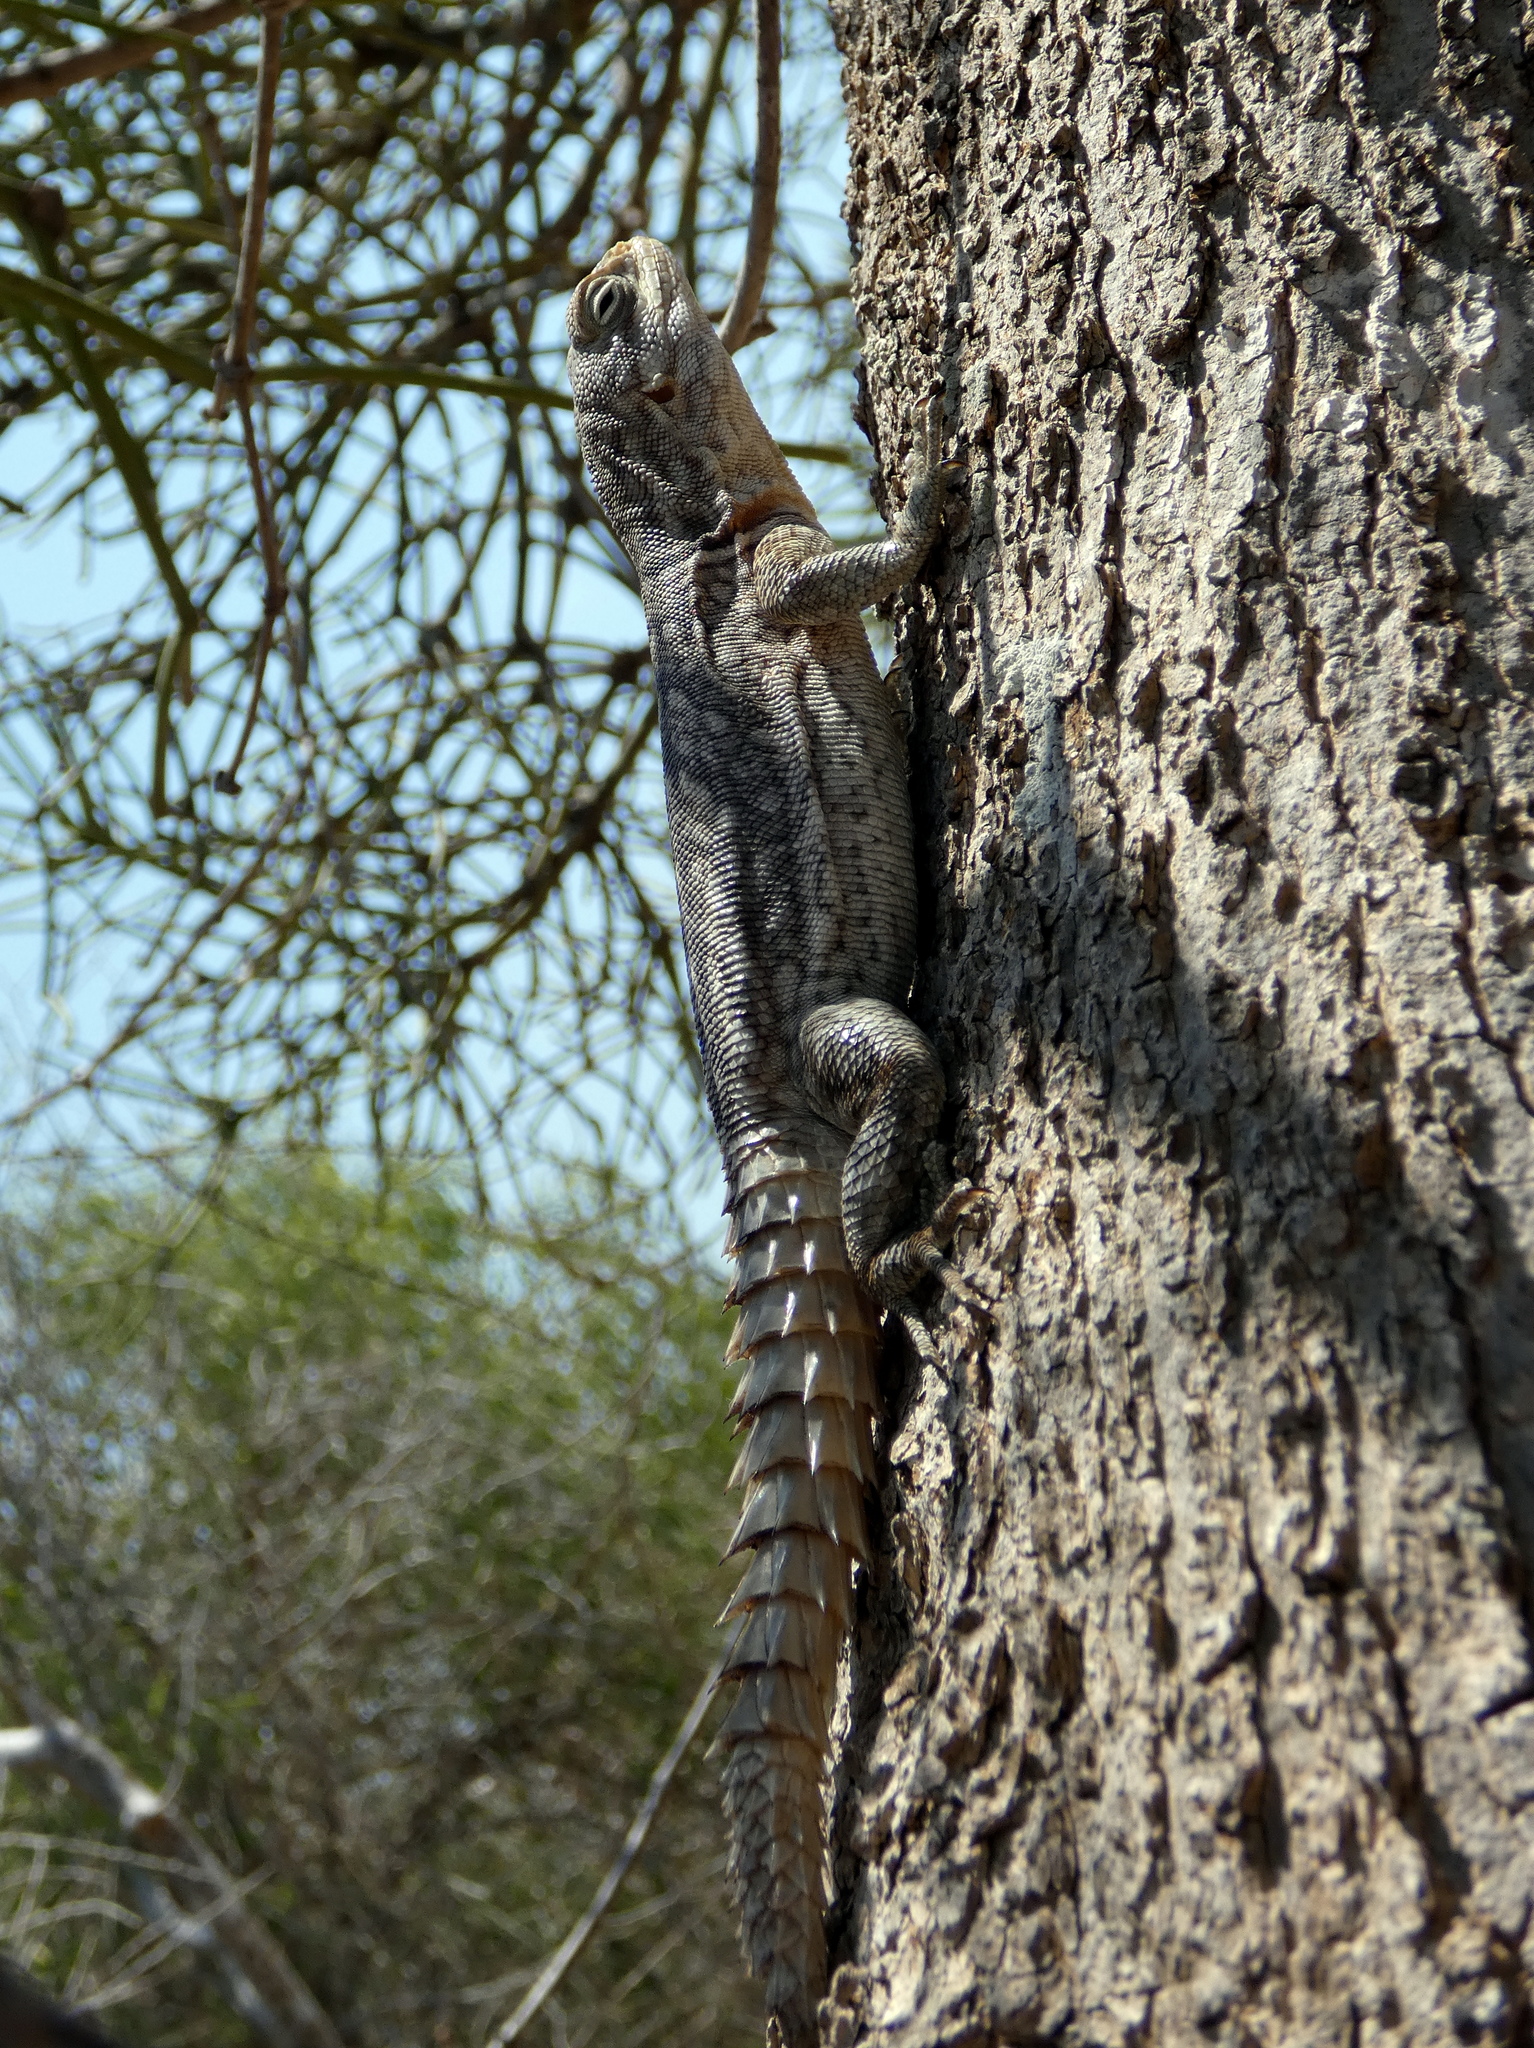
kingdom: Animalia
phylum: Chordata
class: Squamata
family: Opluridae
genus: Oplurus
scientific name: Oplurus cyclurus
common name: Merrem's madagascar swift
